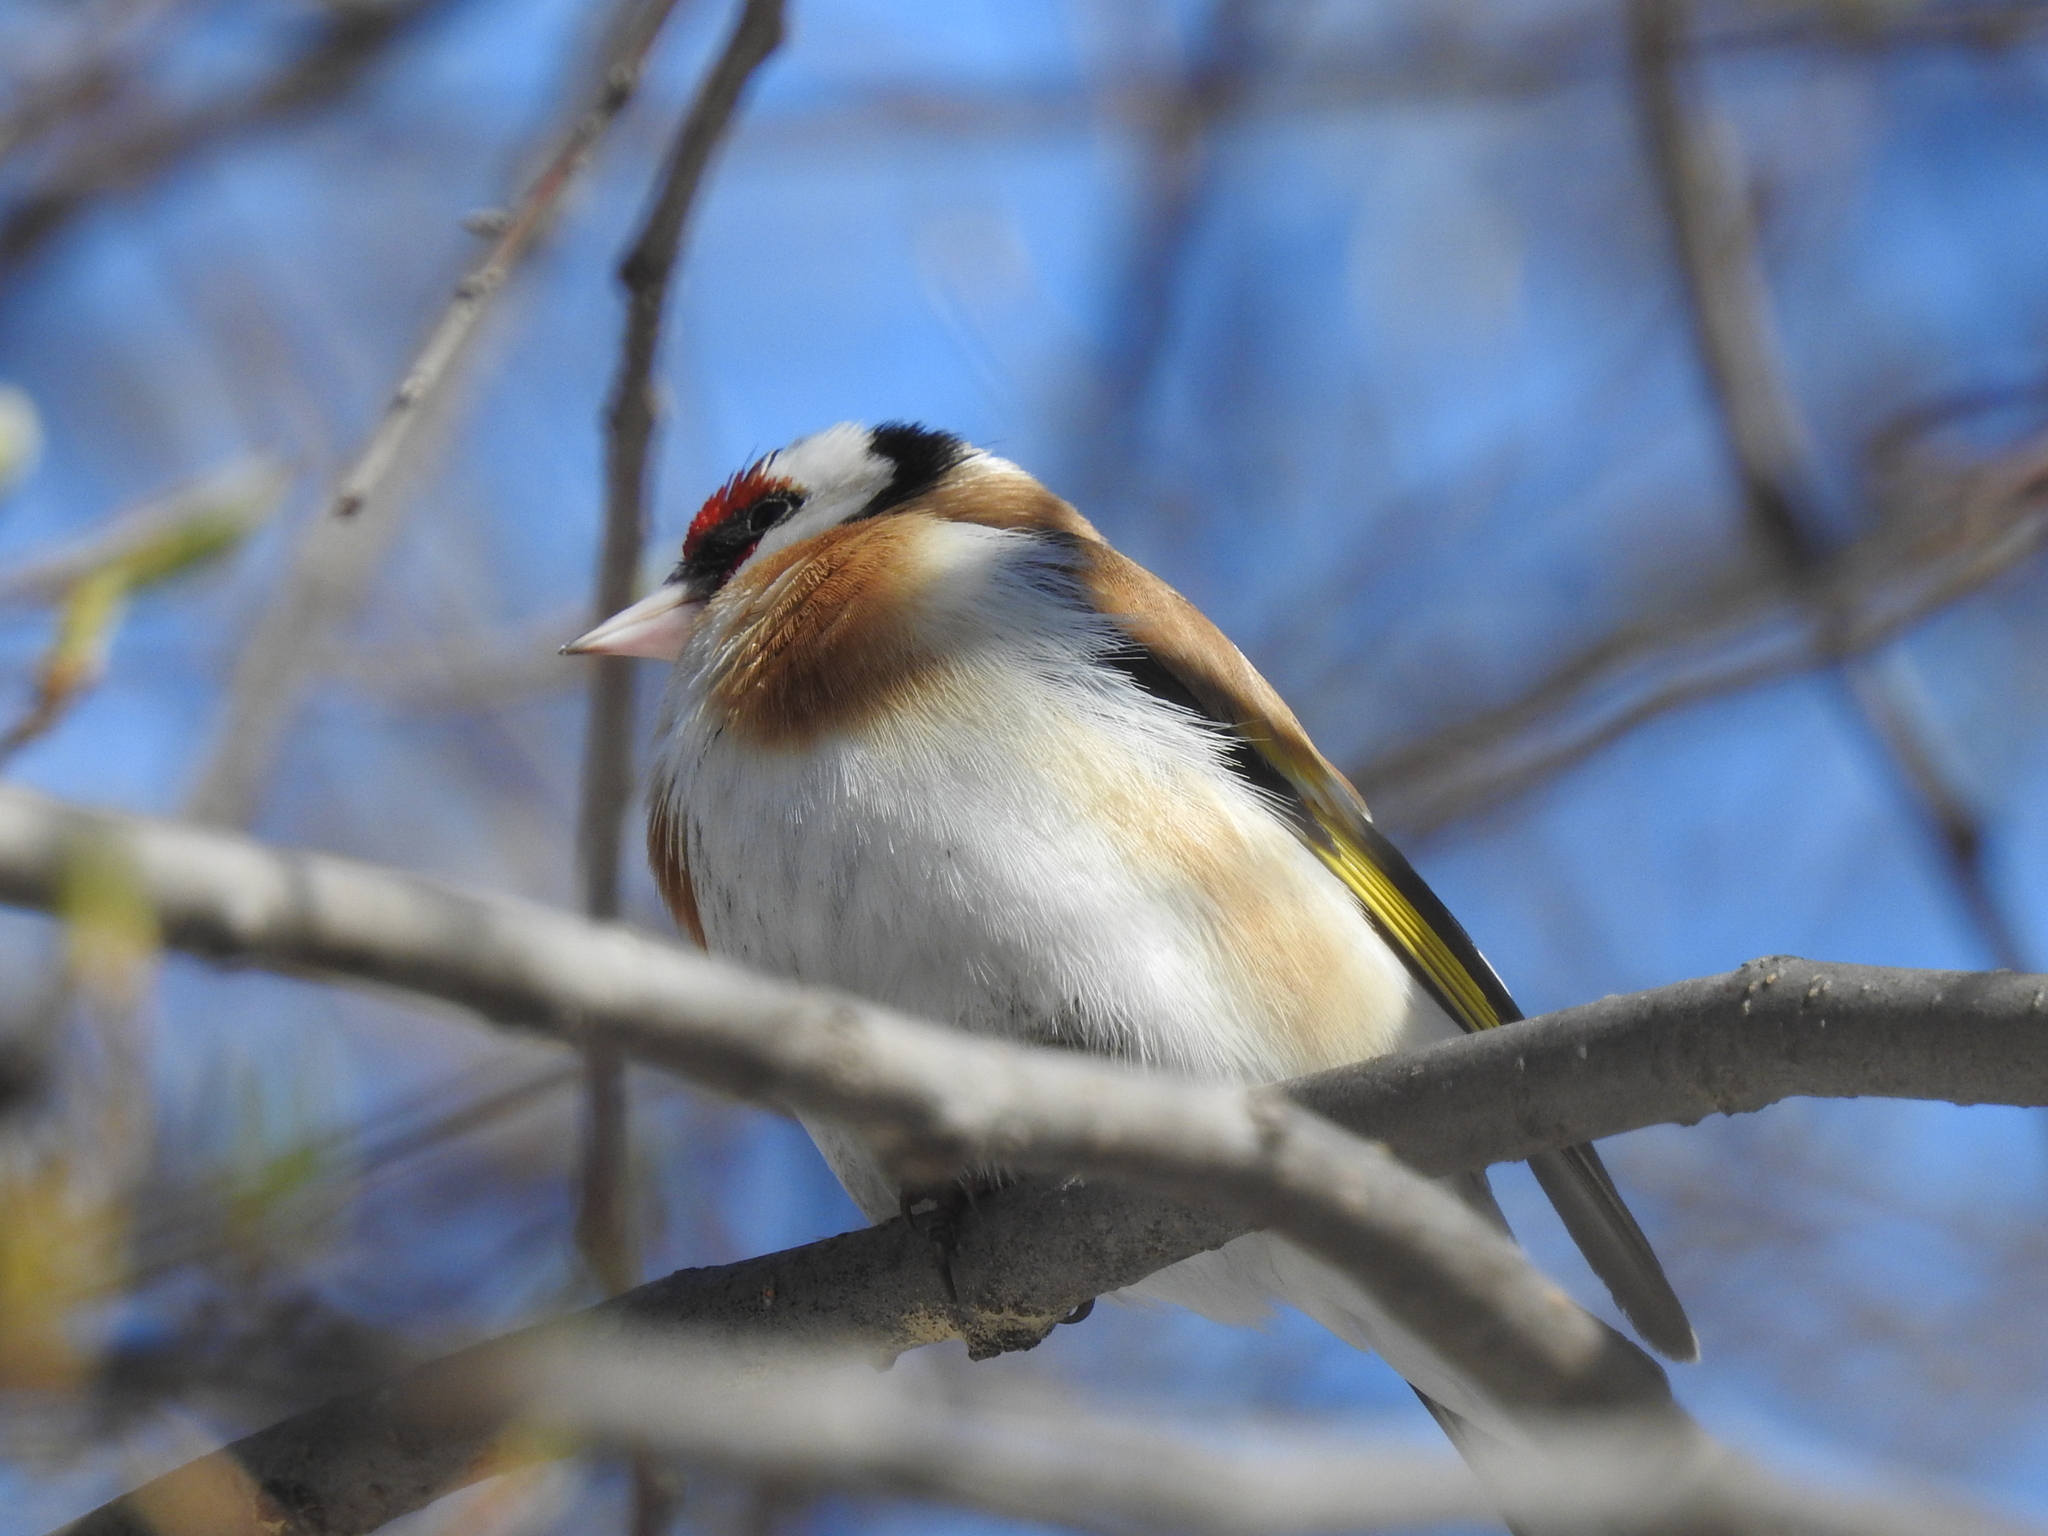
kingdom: Animalia
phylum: Chordata
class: Aves
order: Passeriformes
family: Fringillidae
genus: Carduelis
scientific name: Carduelis carduelis
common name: European goldfinch
